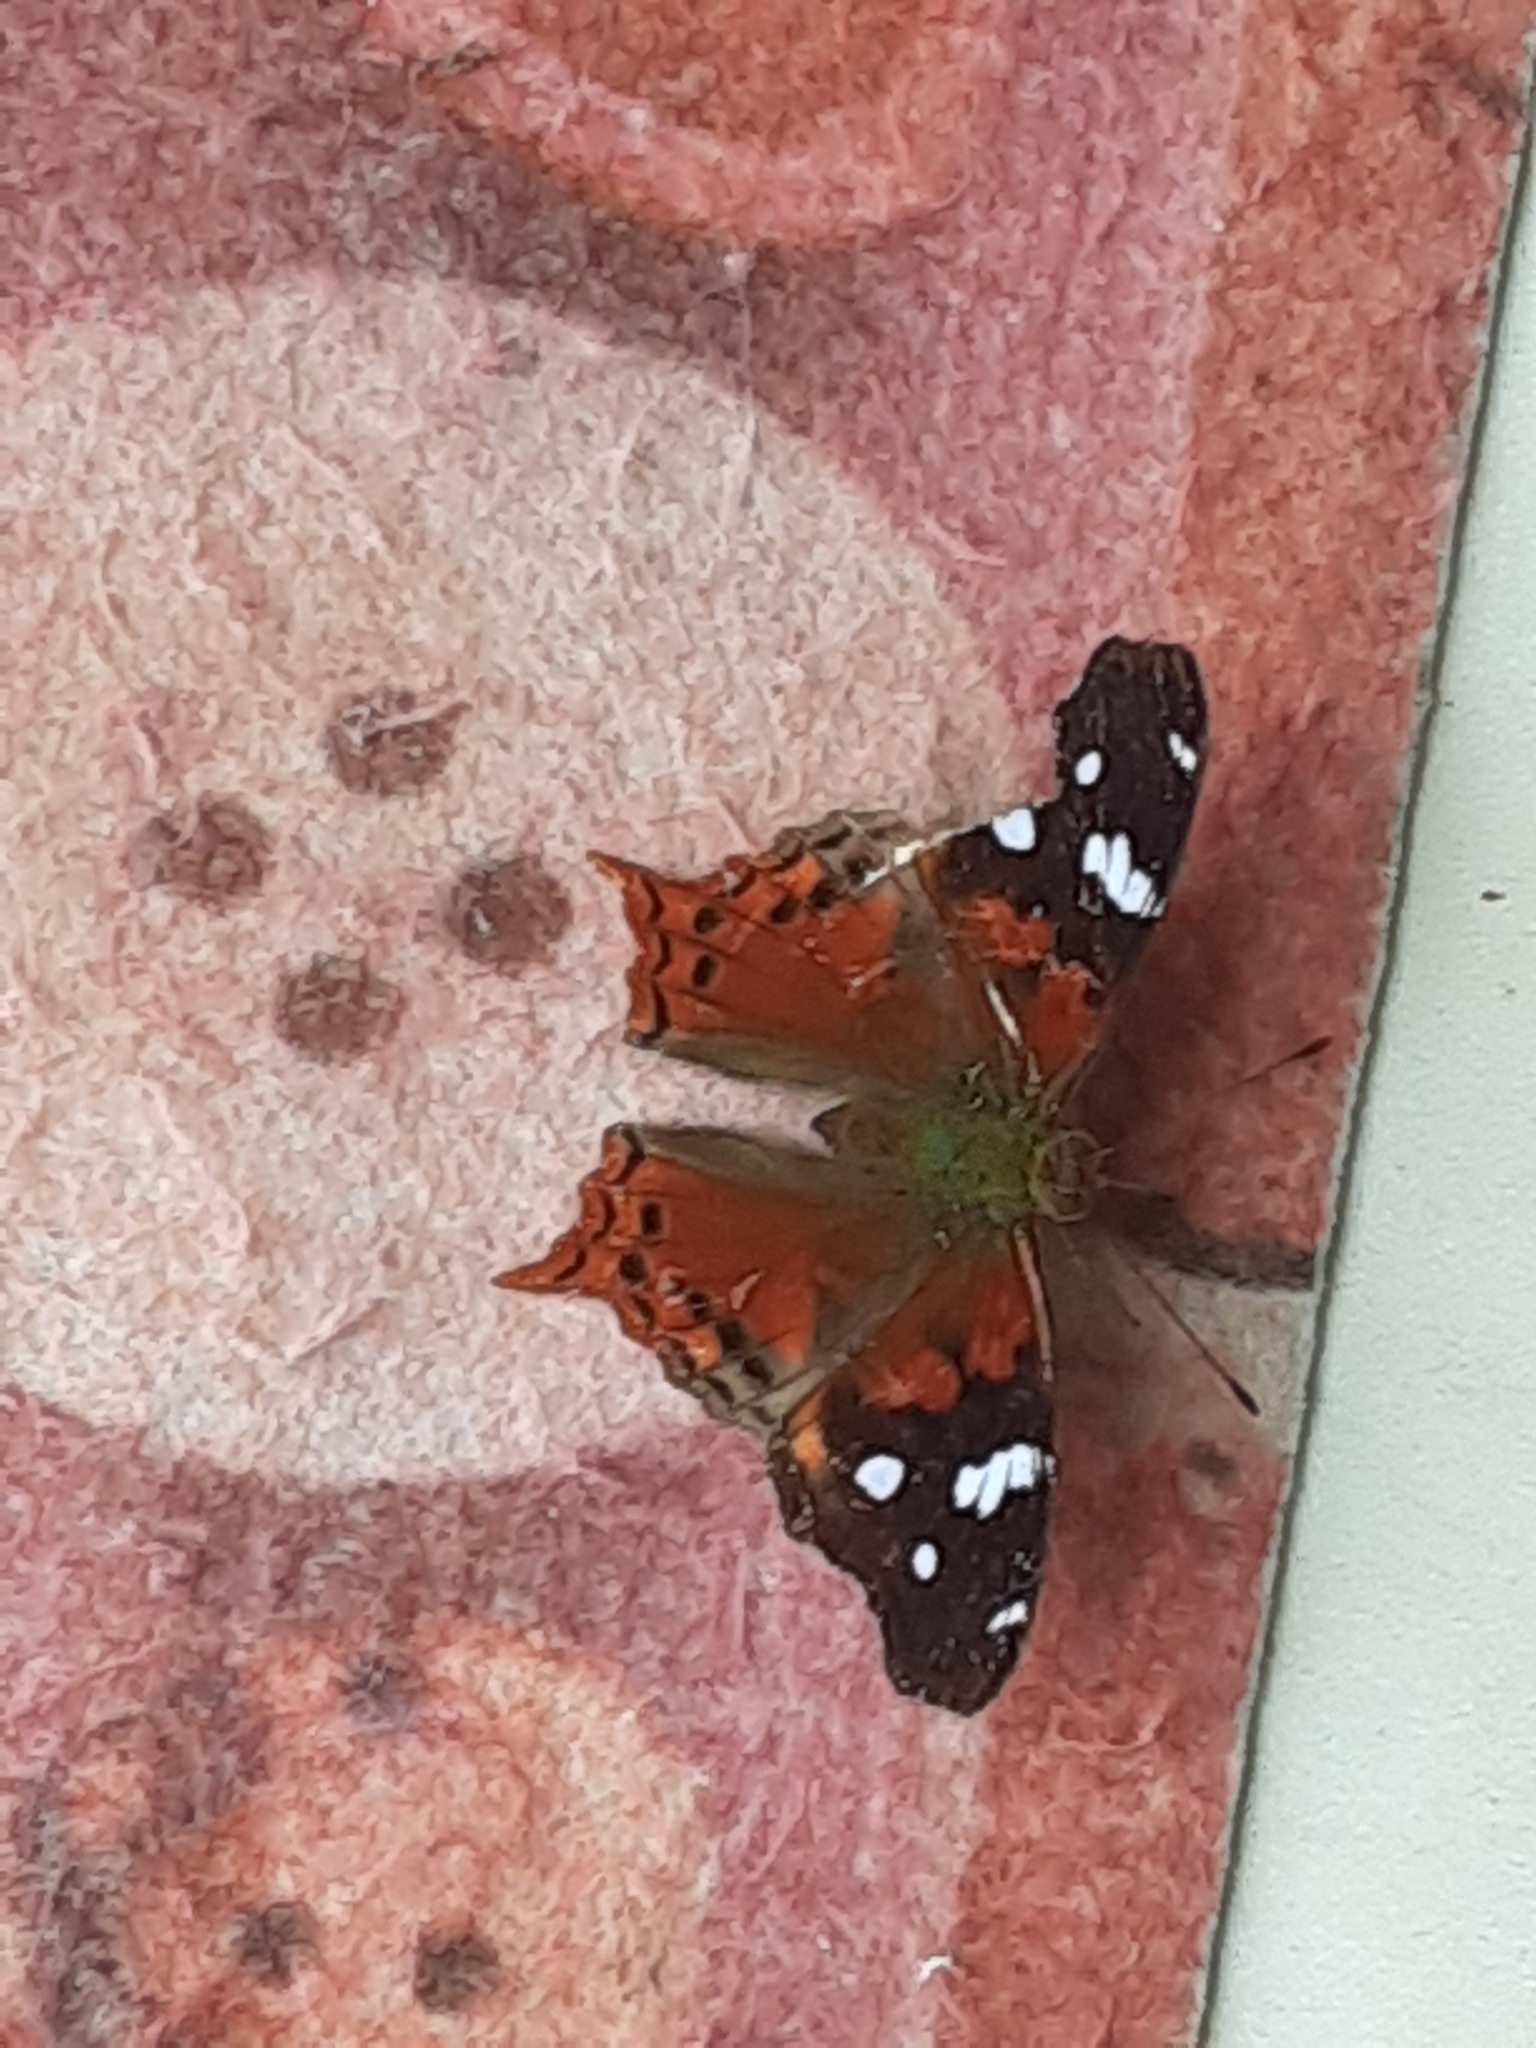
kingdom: Animalia
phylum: Arthropoda
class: Insecta
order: Lepidoptera
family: Nymphalidae
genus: Hypanartia
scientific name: Hypanartia trimaculata
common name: Reddish mapwing
